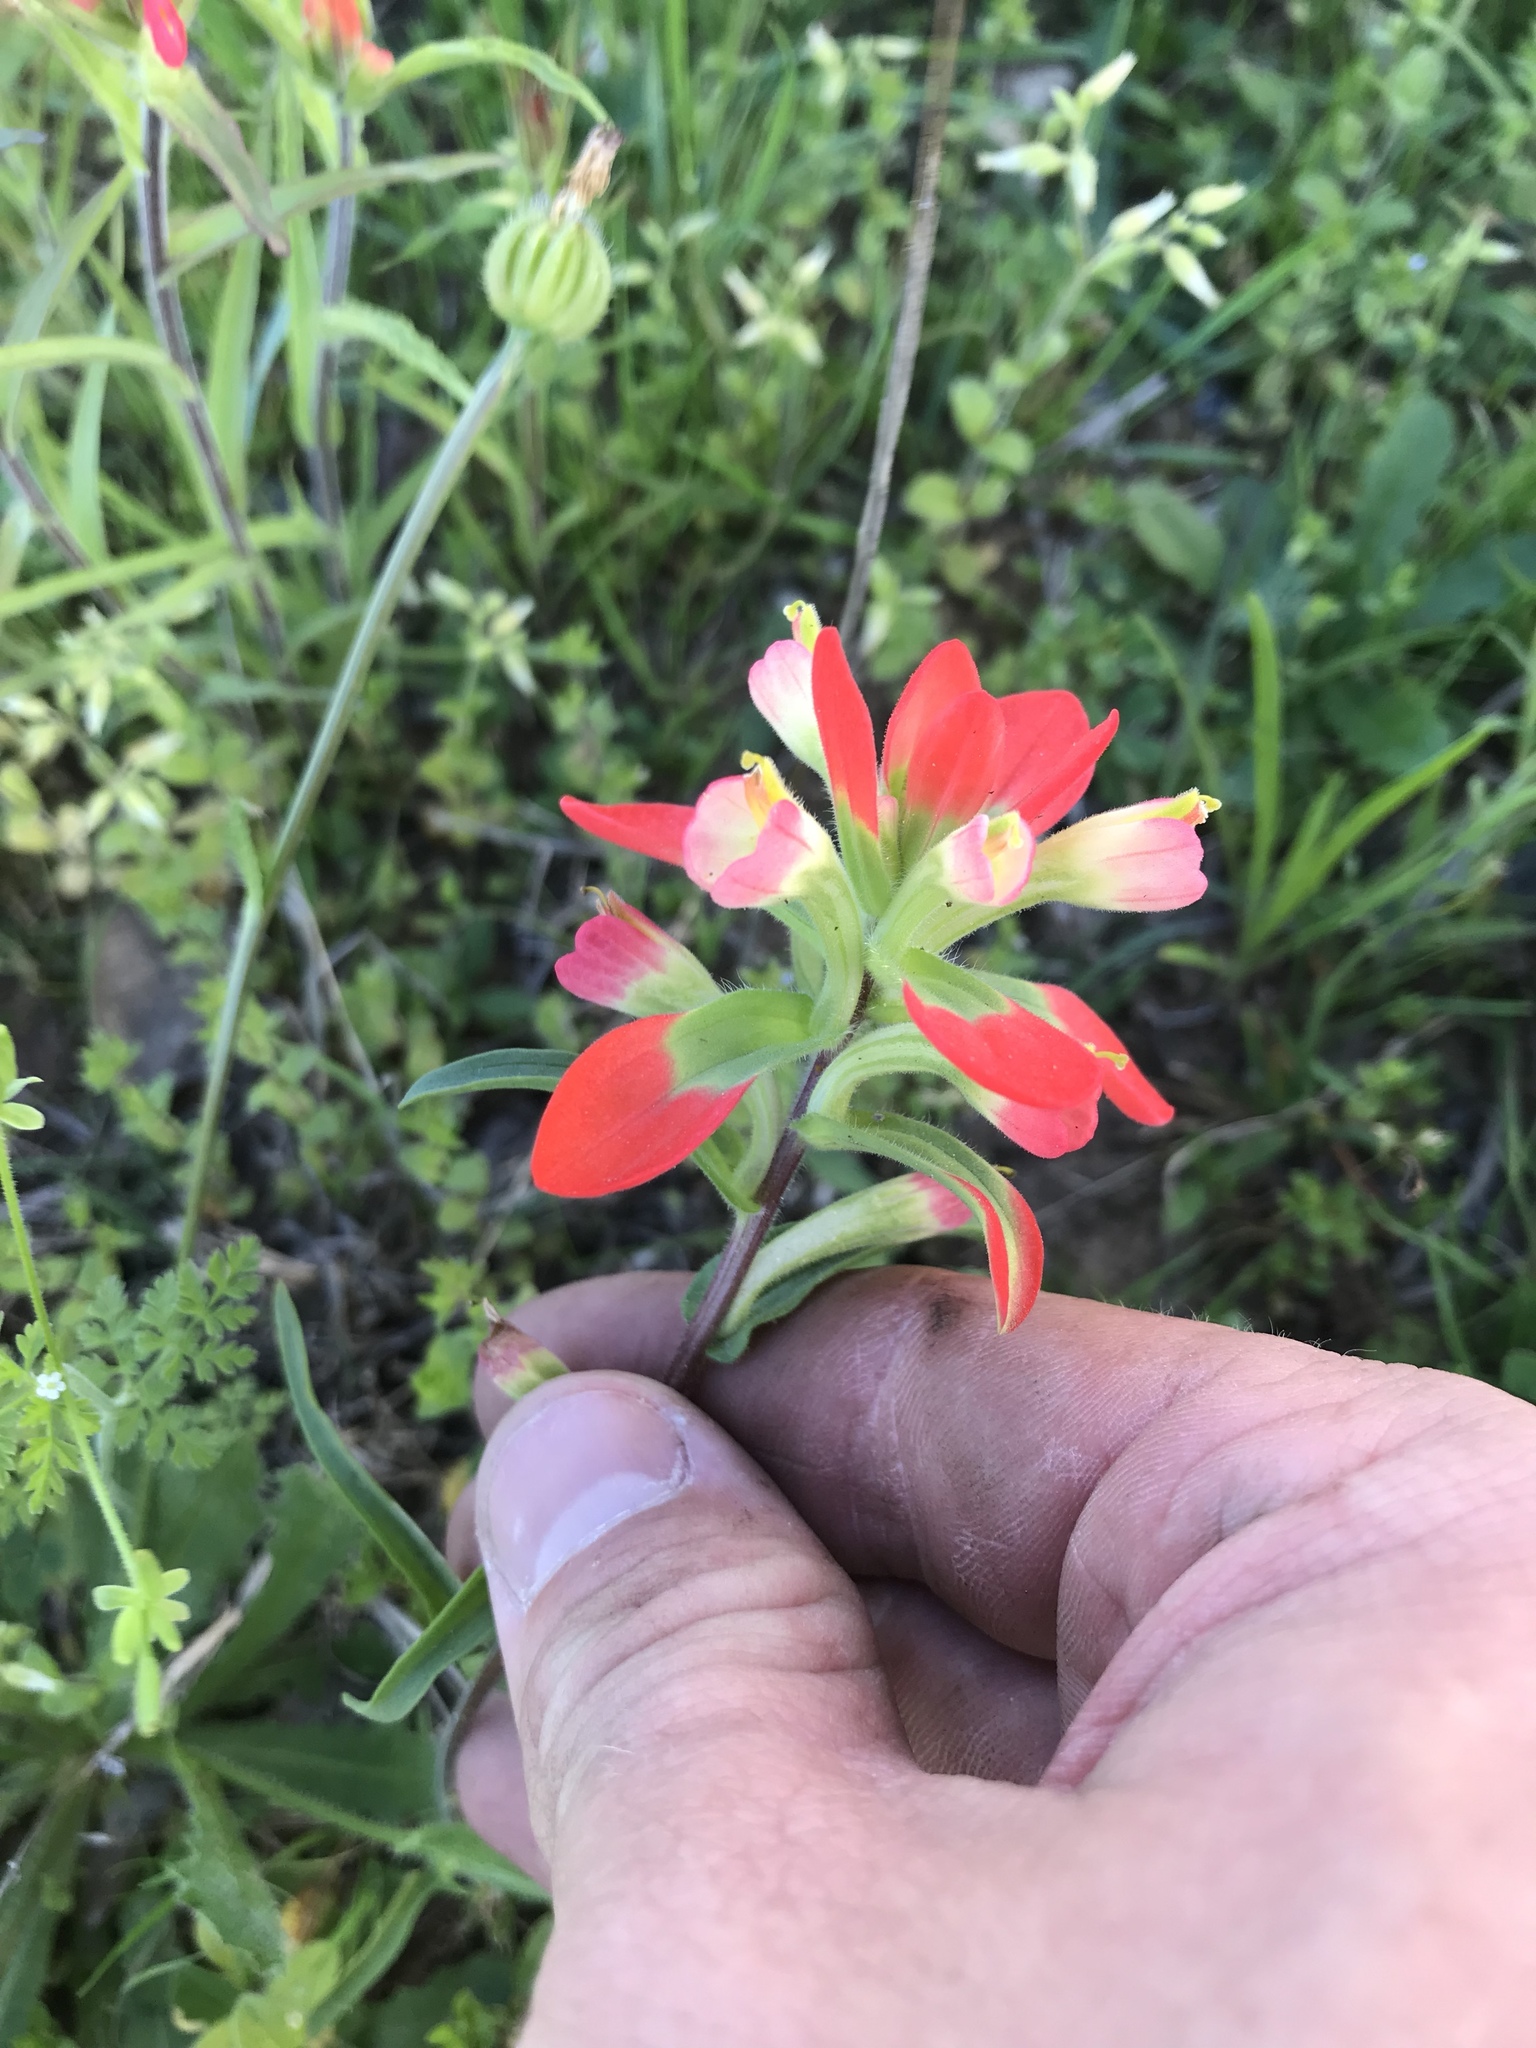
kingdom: Plantae
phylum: Tracheophyta
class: Magnoliopsida
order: Lamiales
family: Orobanchaceae
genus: Castilleja
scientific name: Castilleja indivisa
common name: Texas paintbrush
